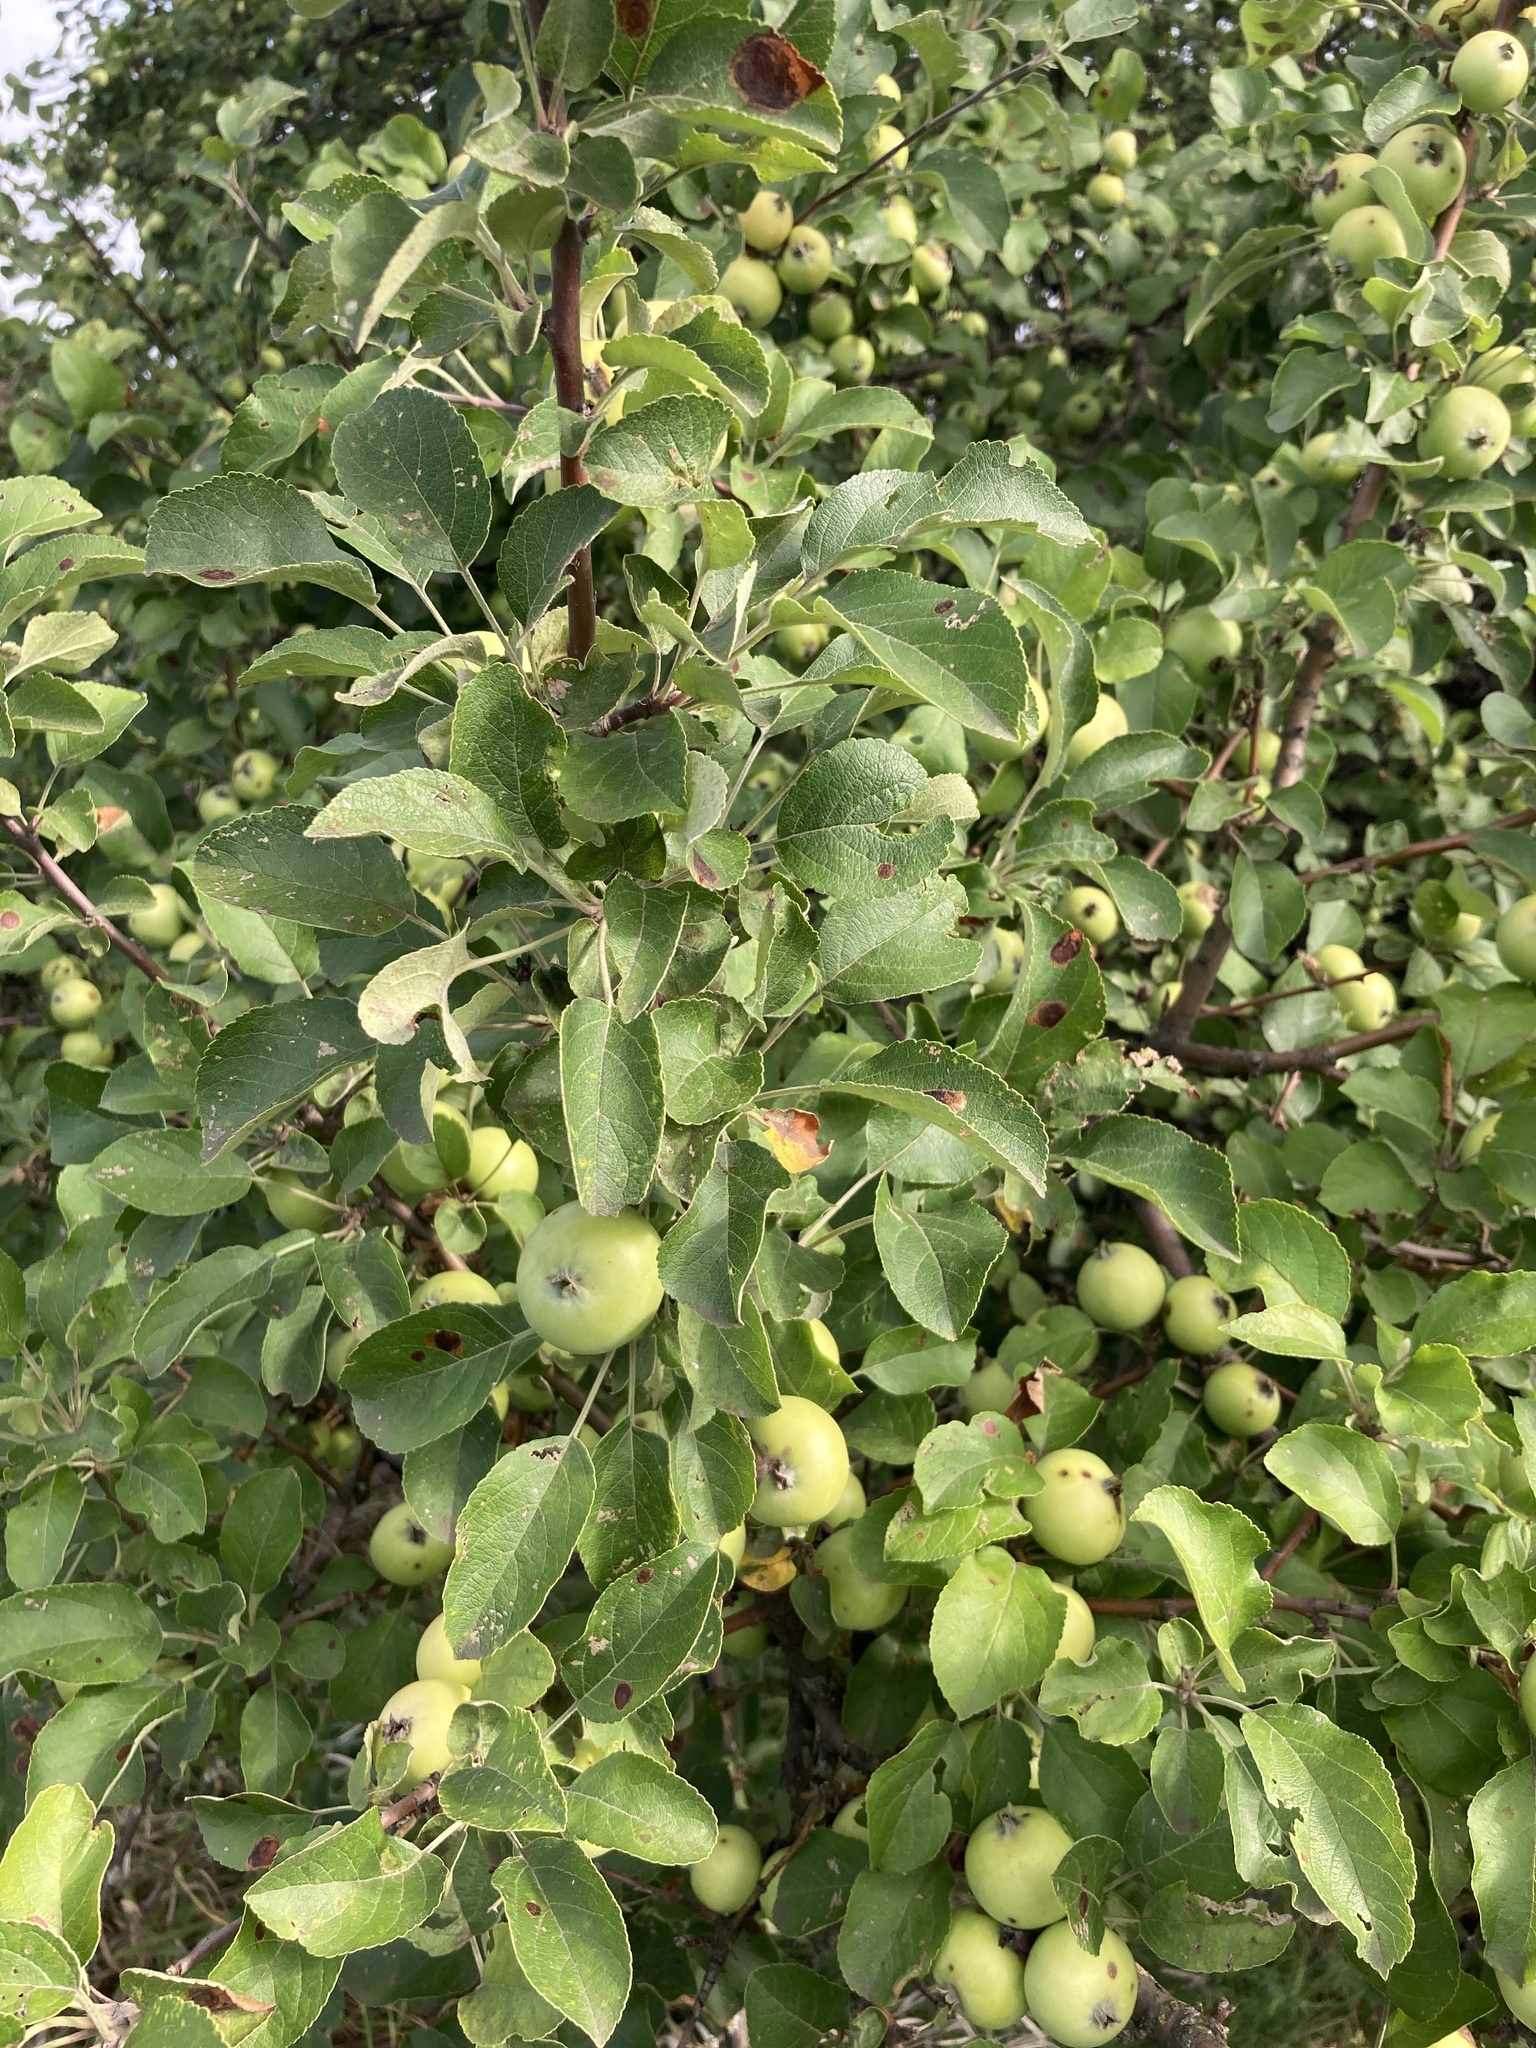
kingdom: Plantae
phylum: Tracheophyta
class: Magnoliopsida
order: Rosales
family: Rosaceae
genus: Malus
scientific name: Malus domestica
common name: Apple
